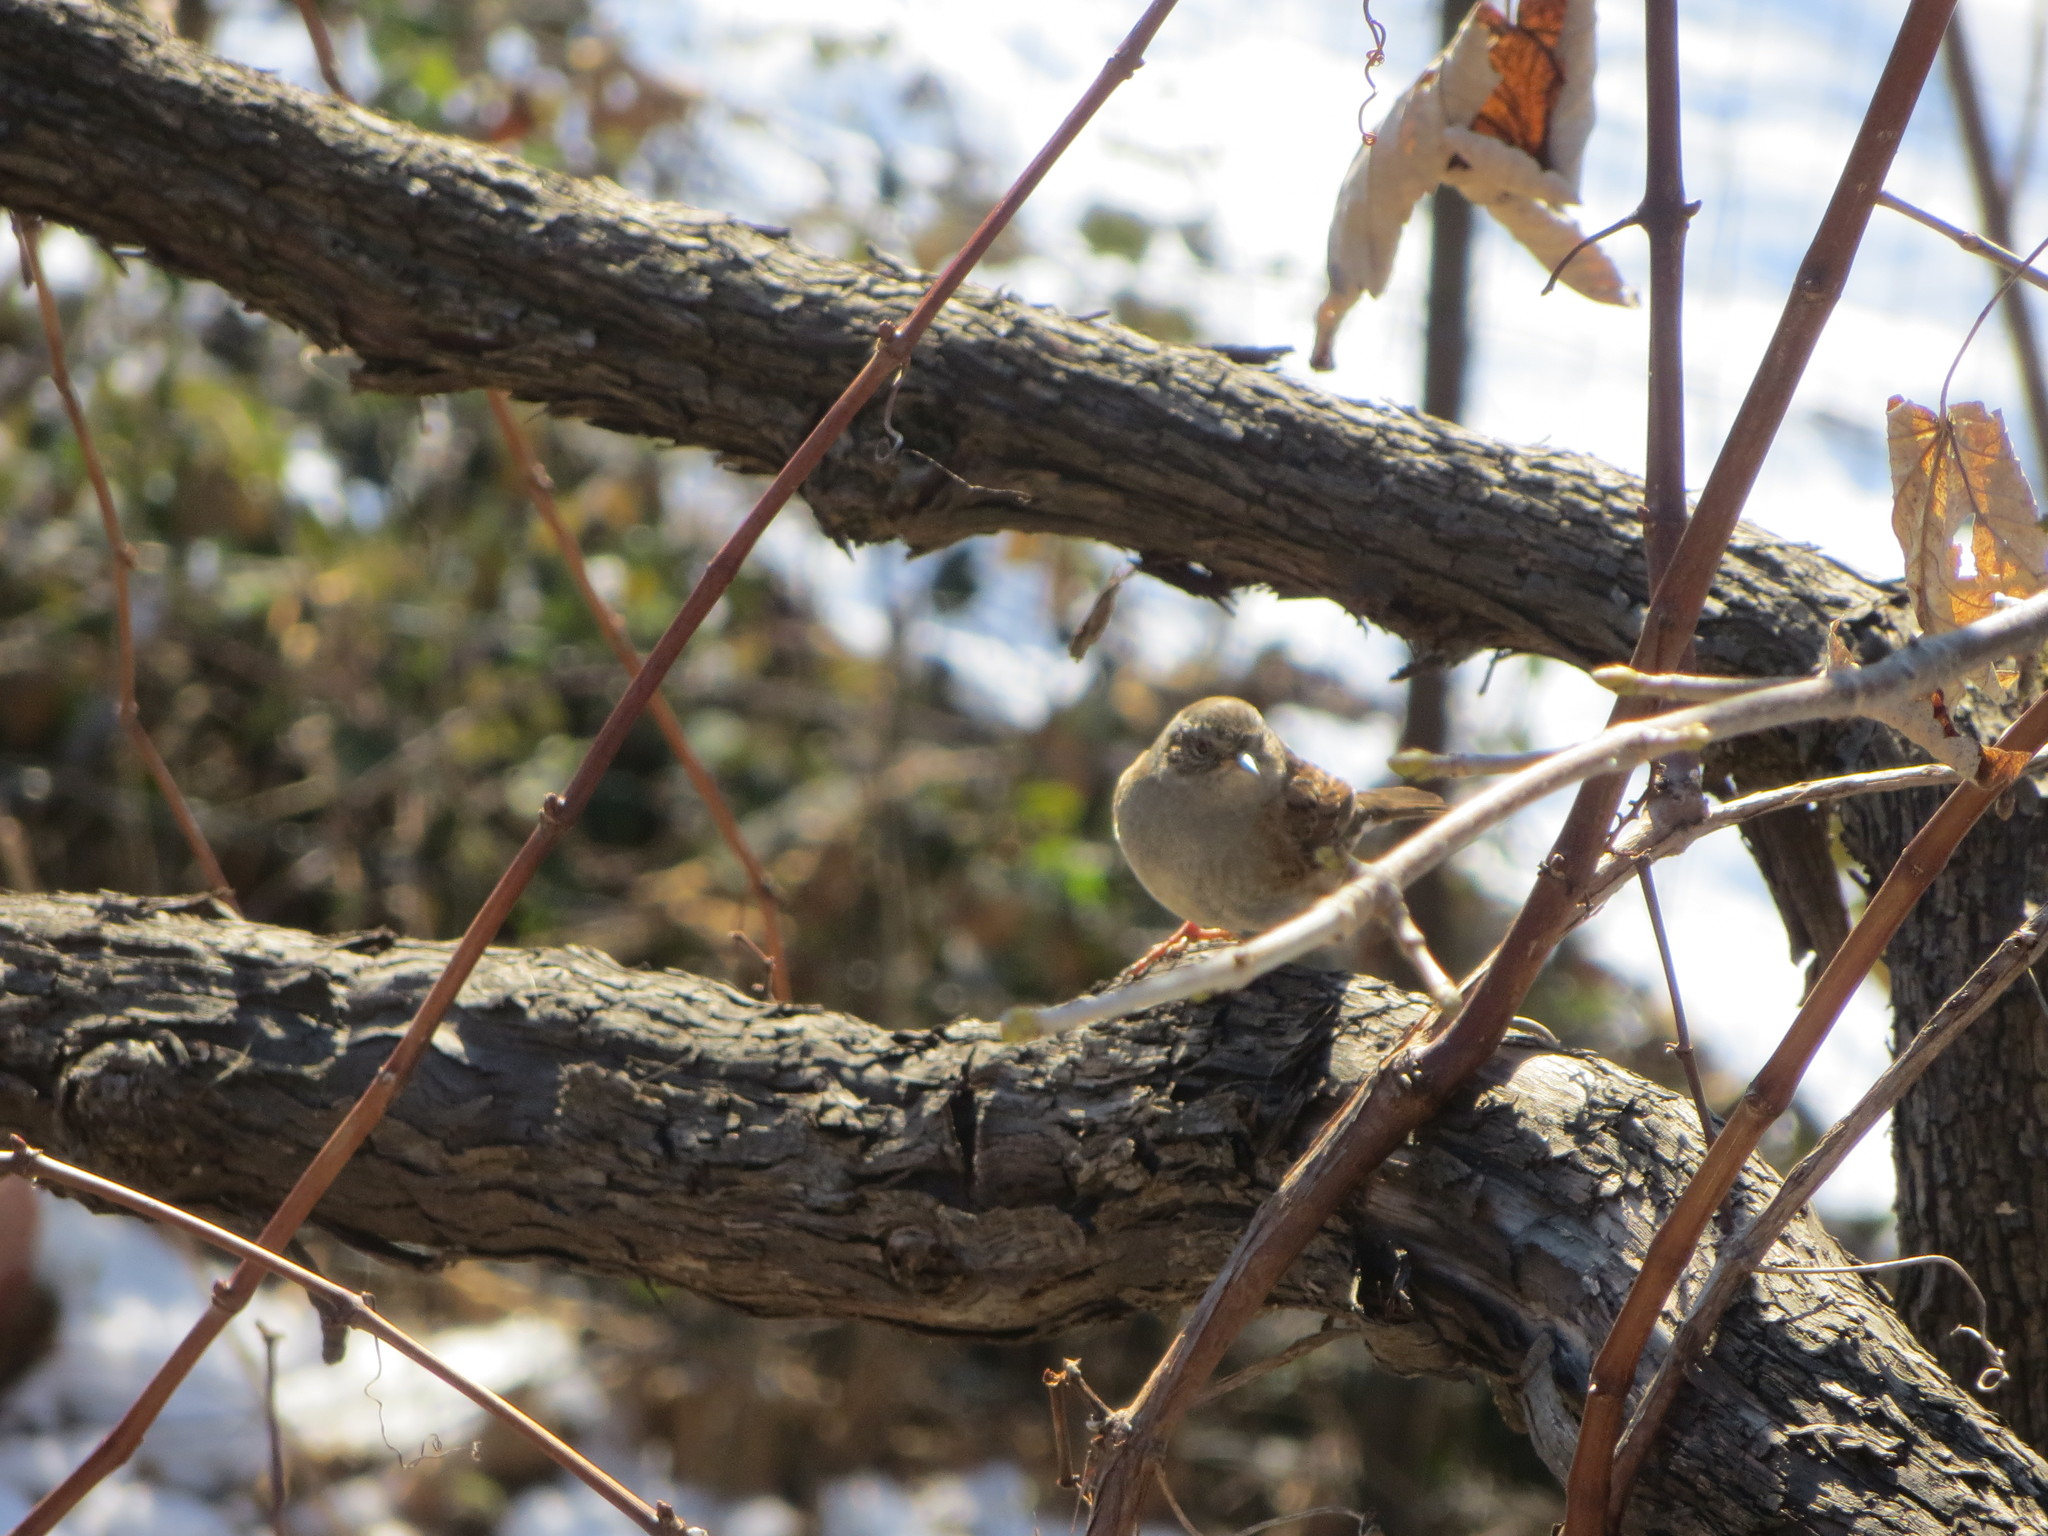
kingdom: Animalia
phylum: Chordata
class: Aves
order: Passeriformes
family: Prunellidae
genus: Prunella
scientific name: Prunella modularis
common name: Dunnock
